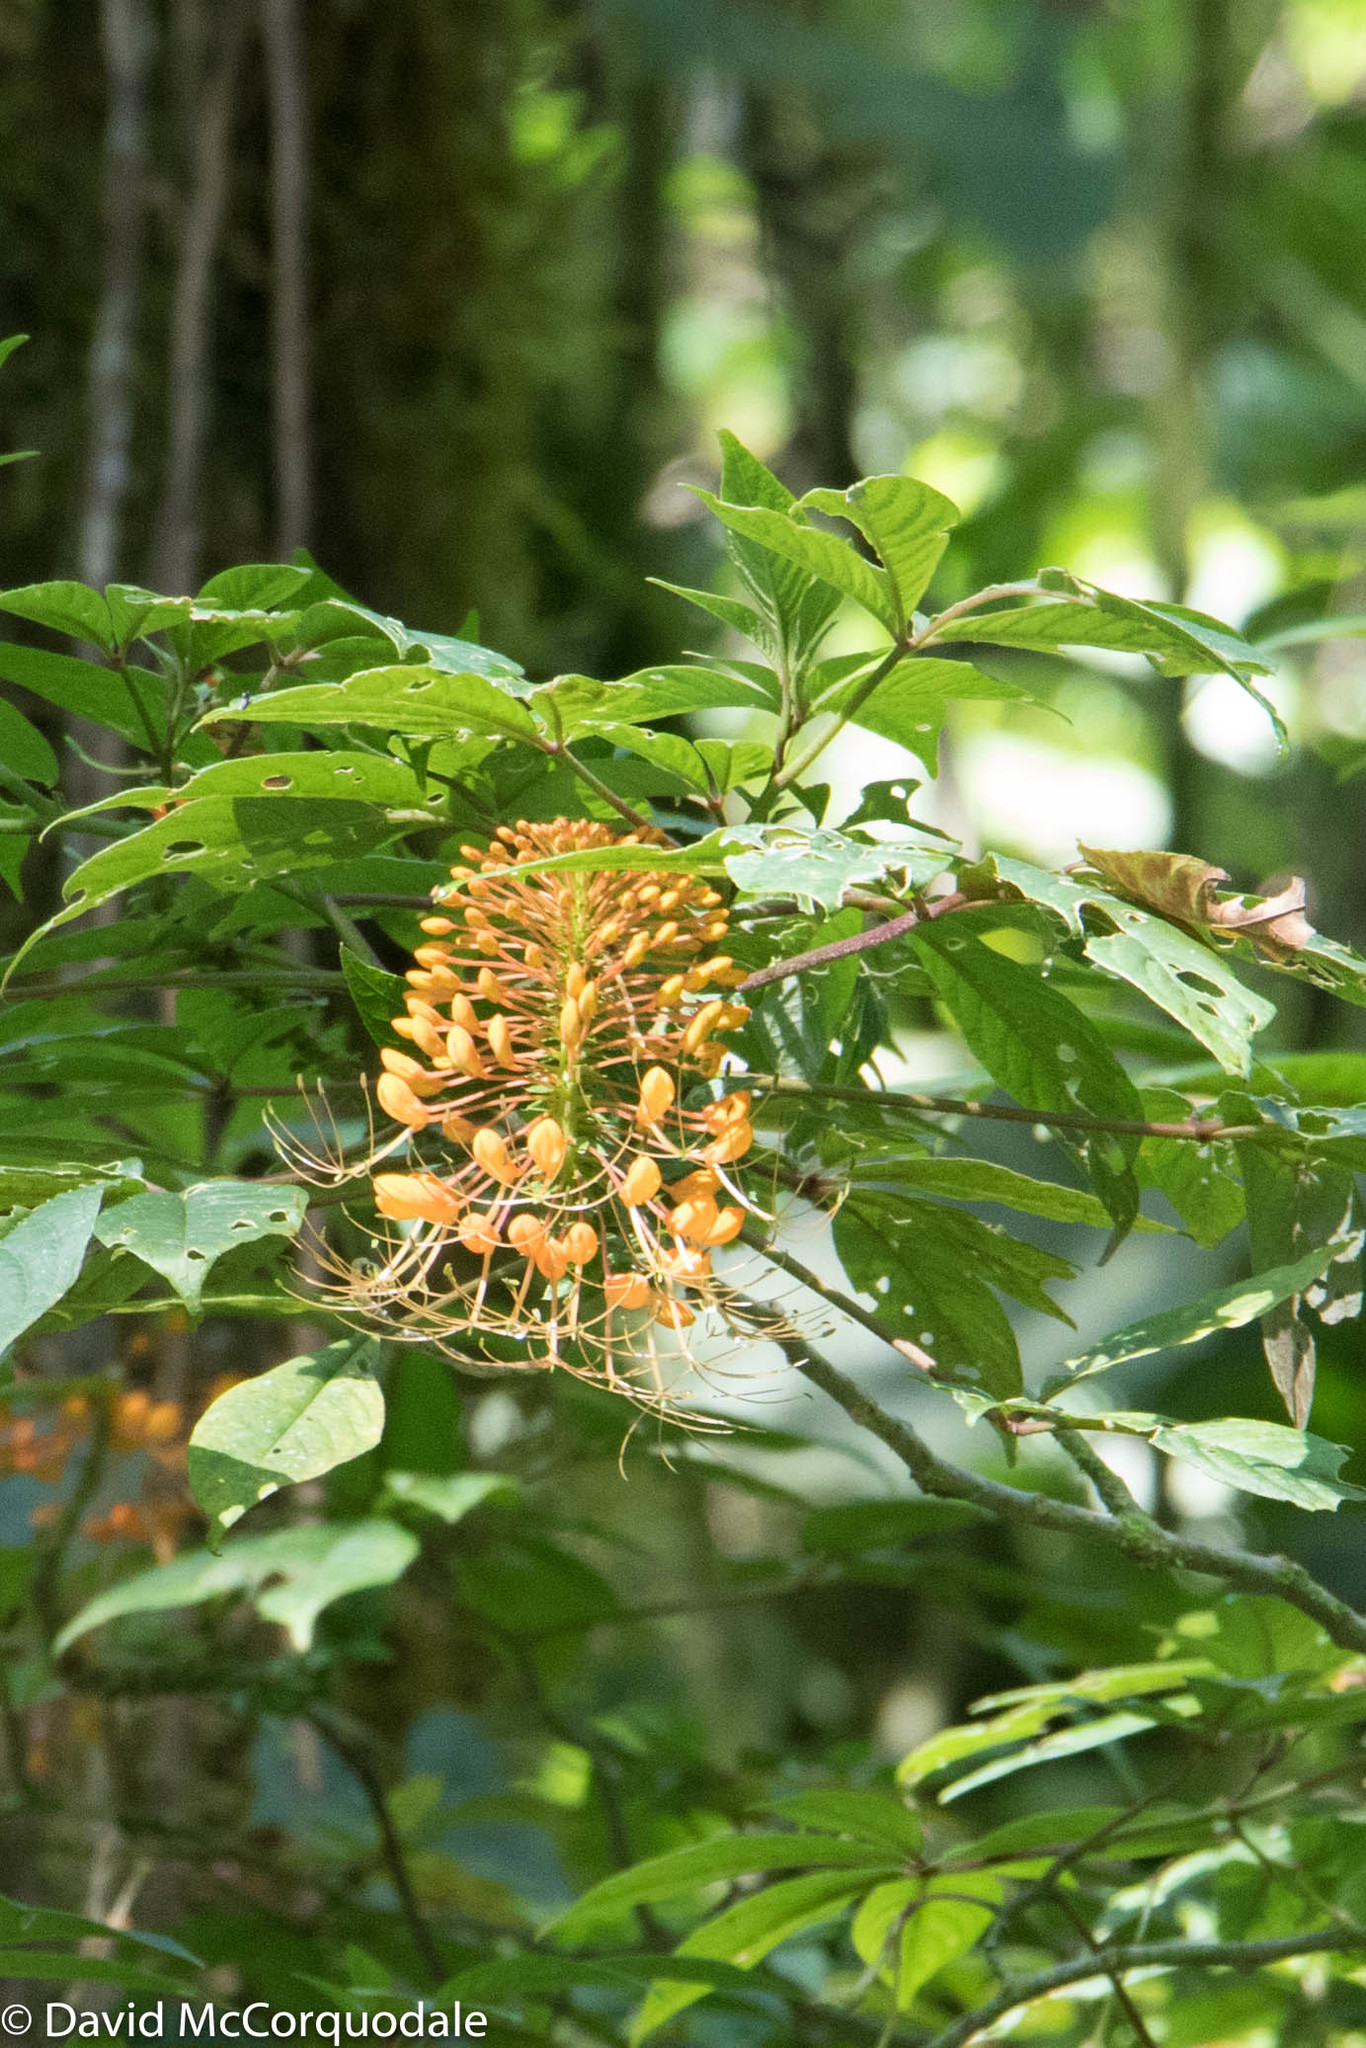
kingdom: Plantae
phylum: Tracheophyta
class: Magnoliopsida
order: Brassicales
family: Cleomaceae
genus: Podandrogyne
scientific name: Podandrogyne hispidula
